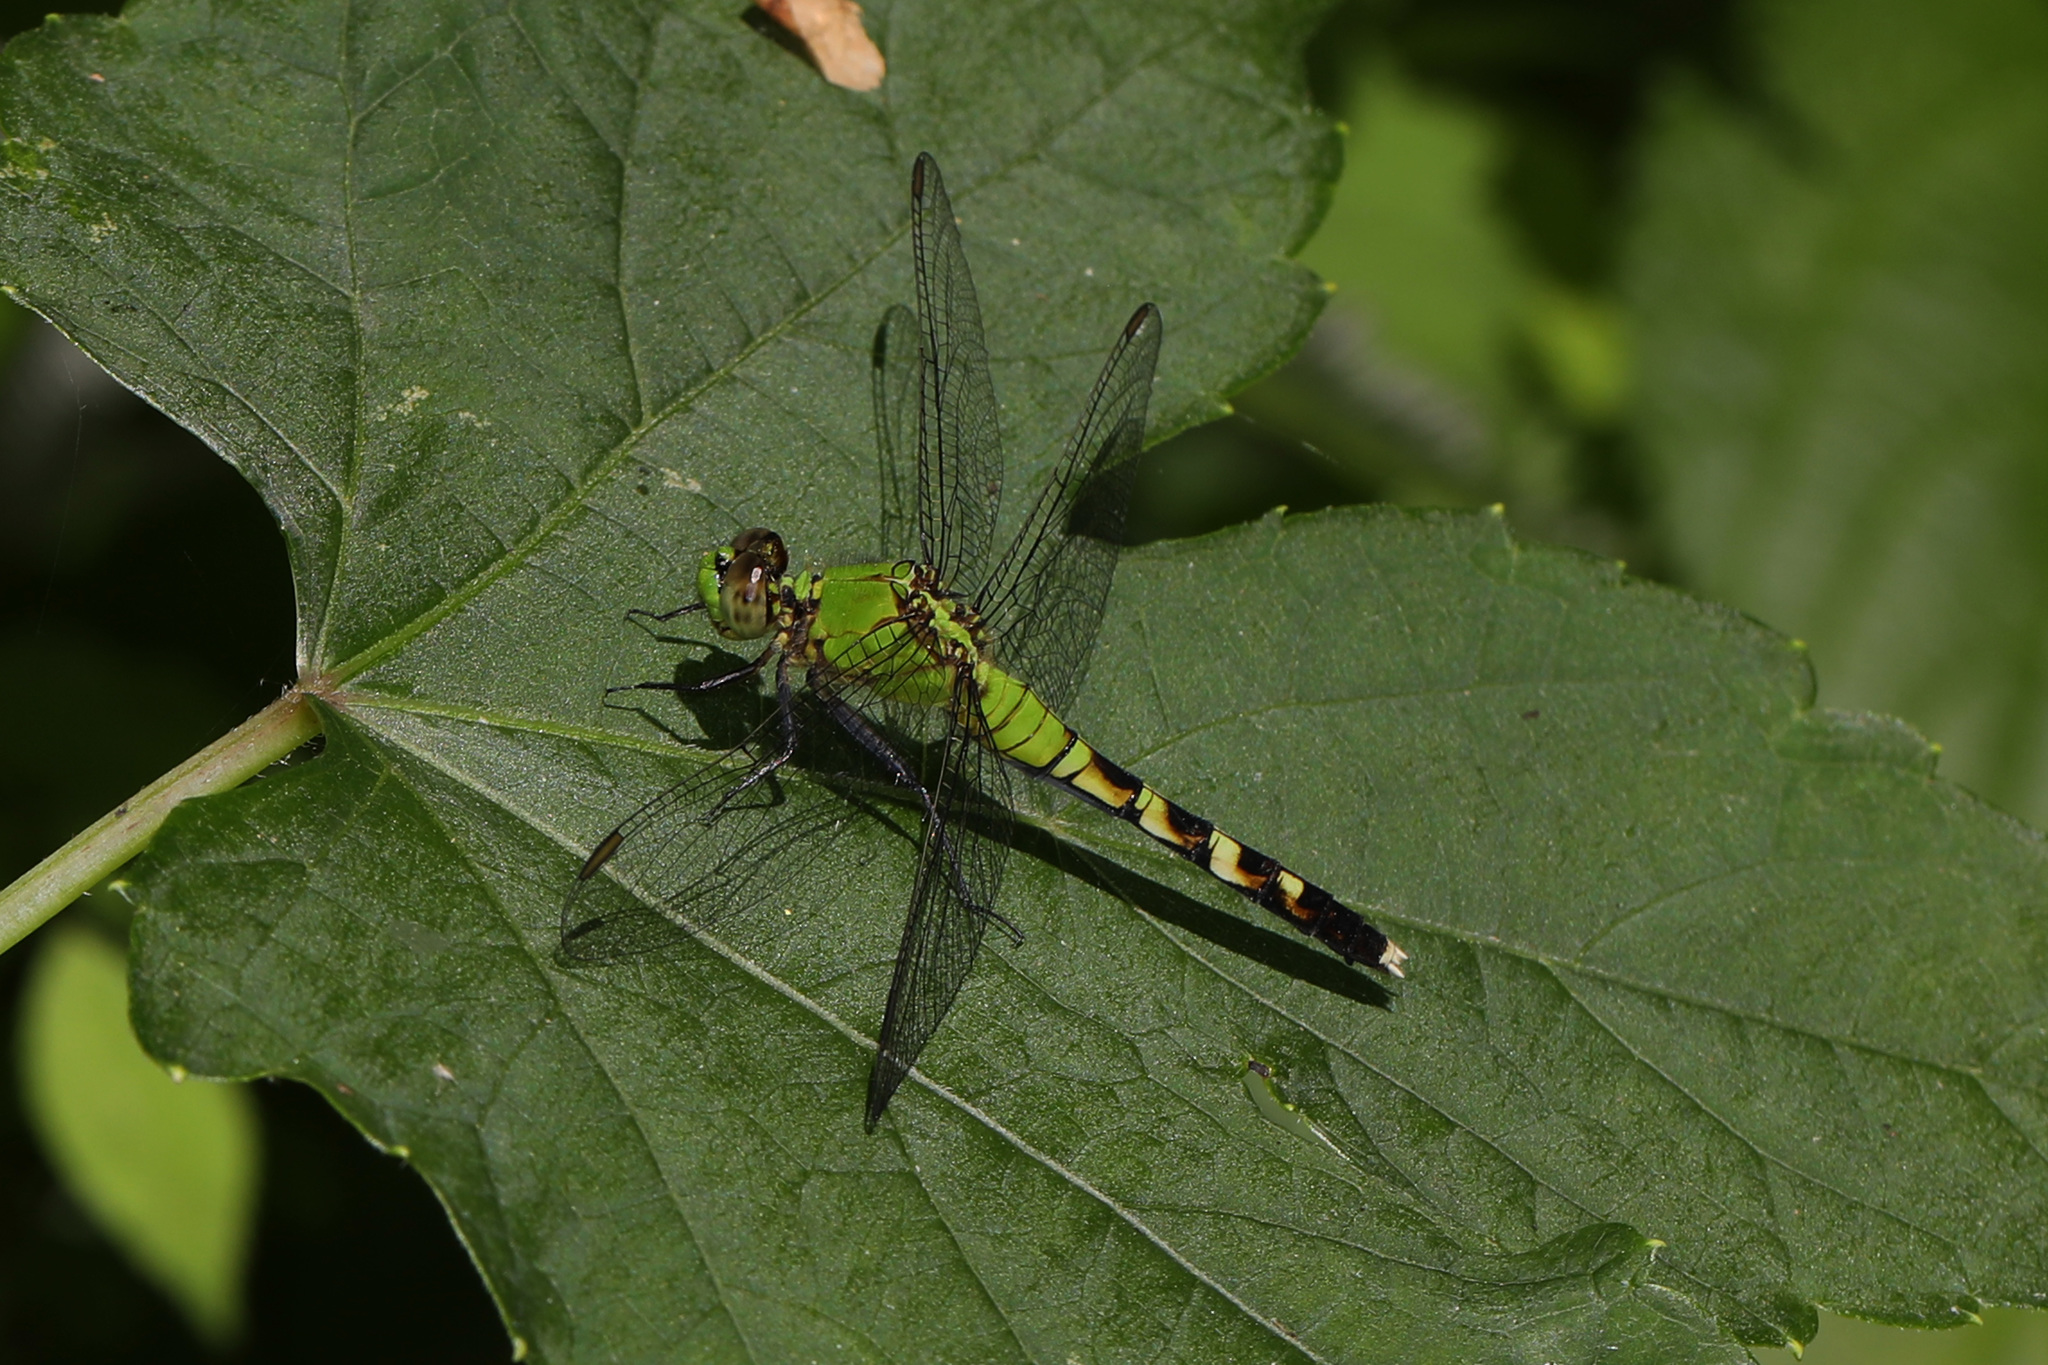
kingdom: Animalia
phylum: Arthropoda
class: Insecta
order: Odonata
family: Libellulidae
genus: Erythemis
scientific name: Erythemis simplicicollis
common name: Eastern pondhawk
